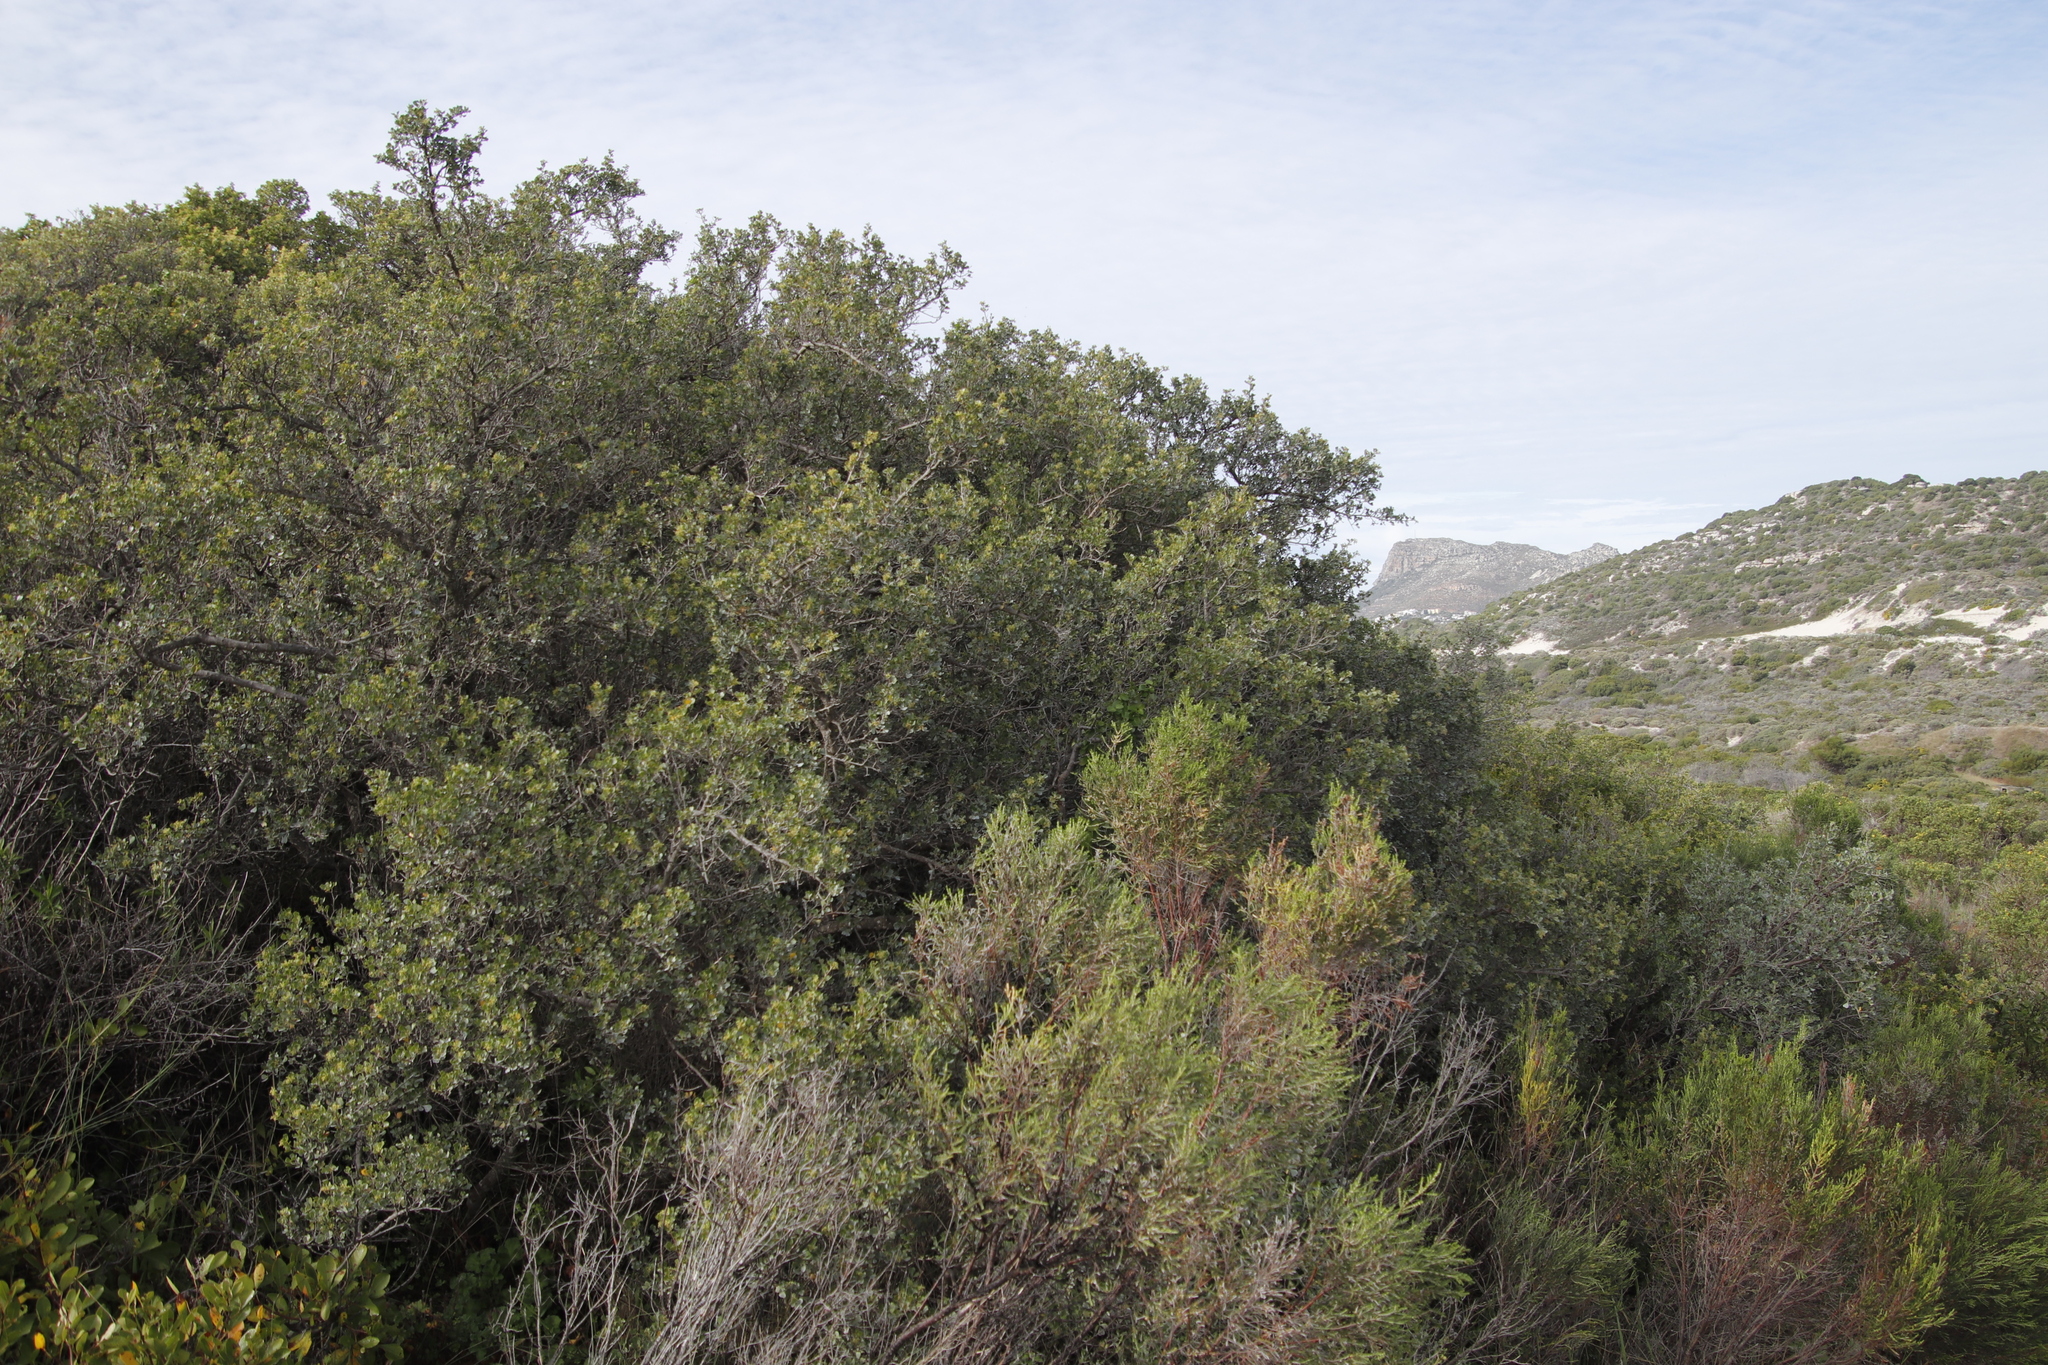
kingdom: Plantae
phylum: Tracheophyta
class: Magnoliopsida
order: Sapindales
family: Anacardiaceae
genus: Searsia
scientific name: Searsia glauca
